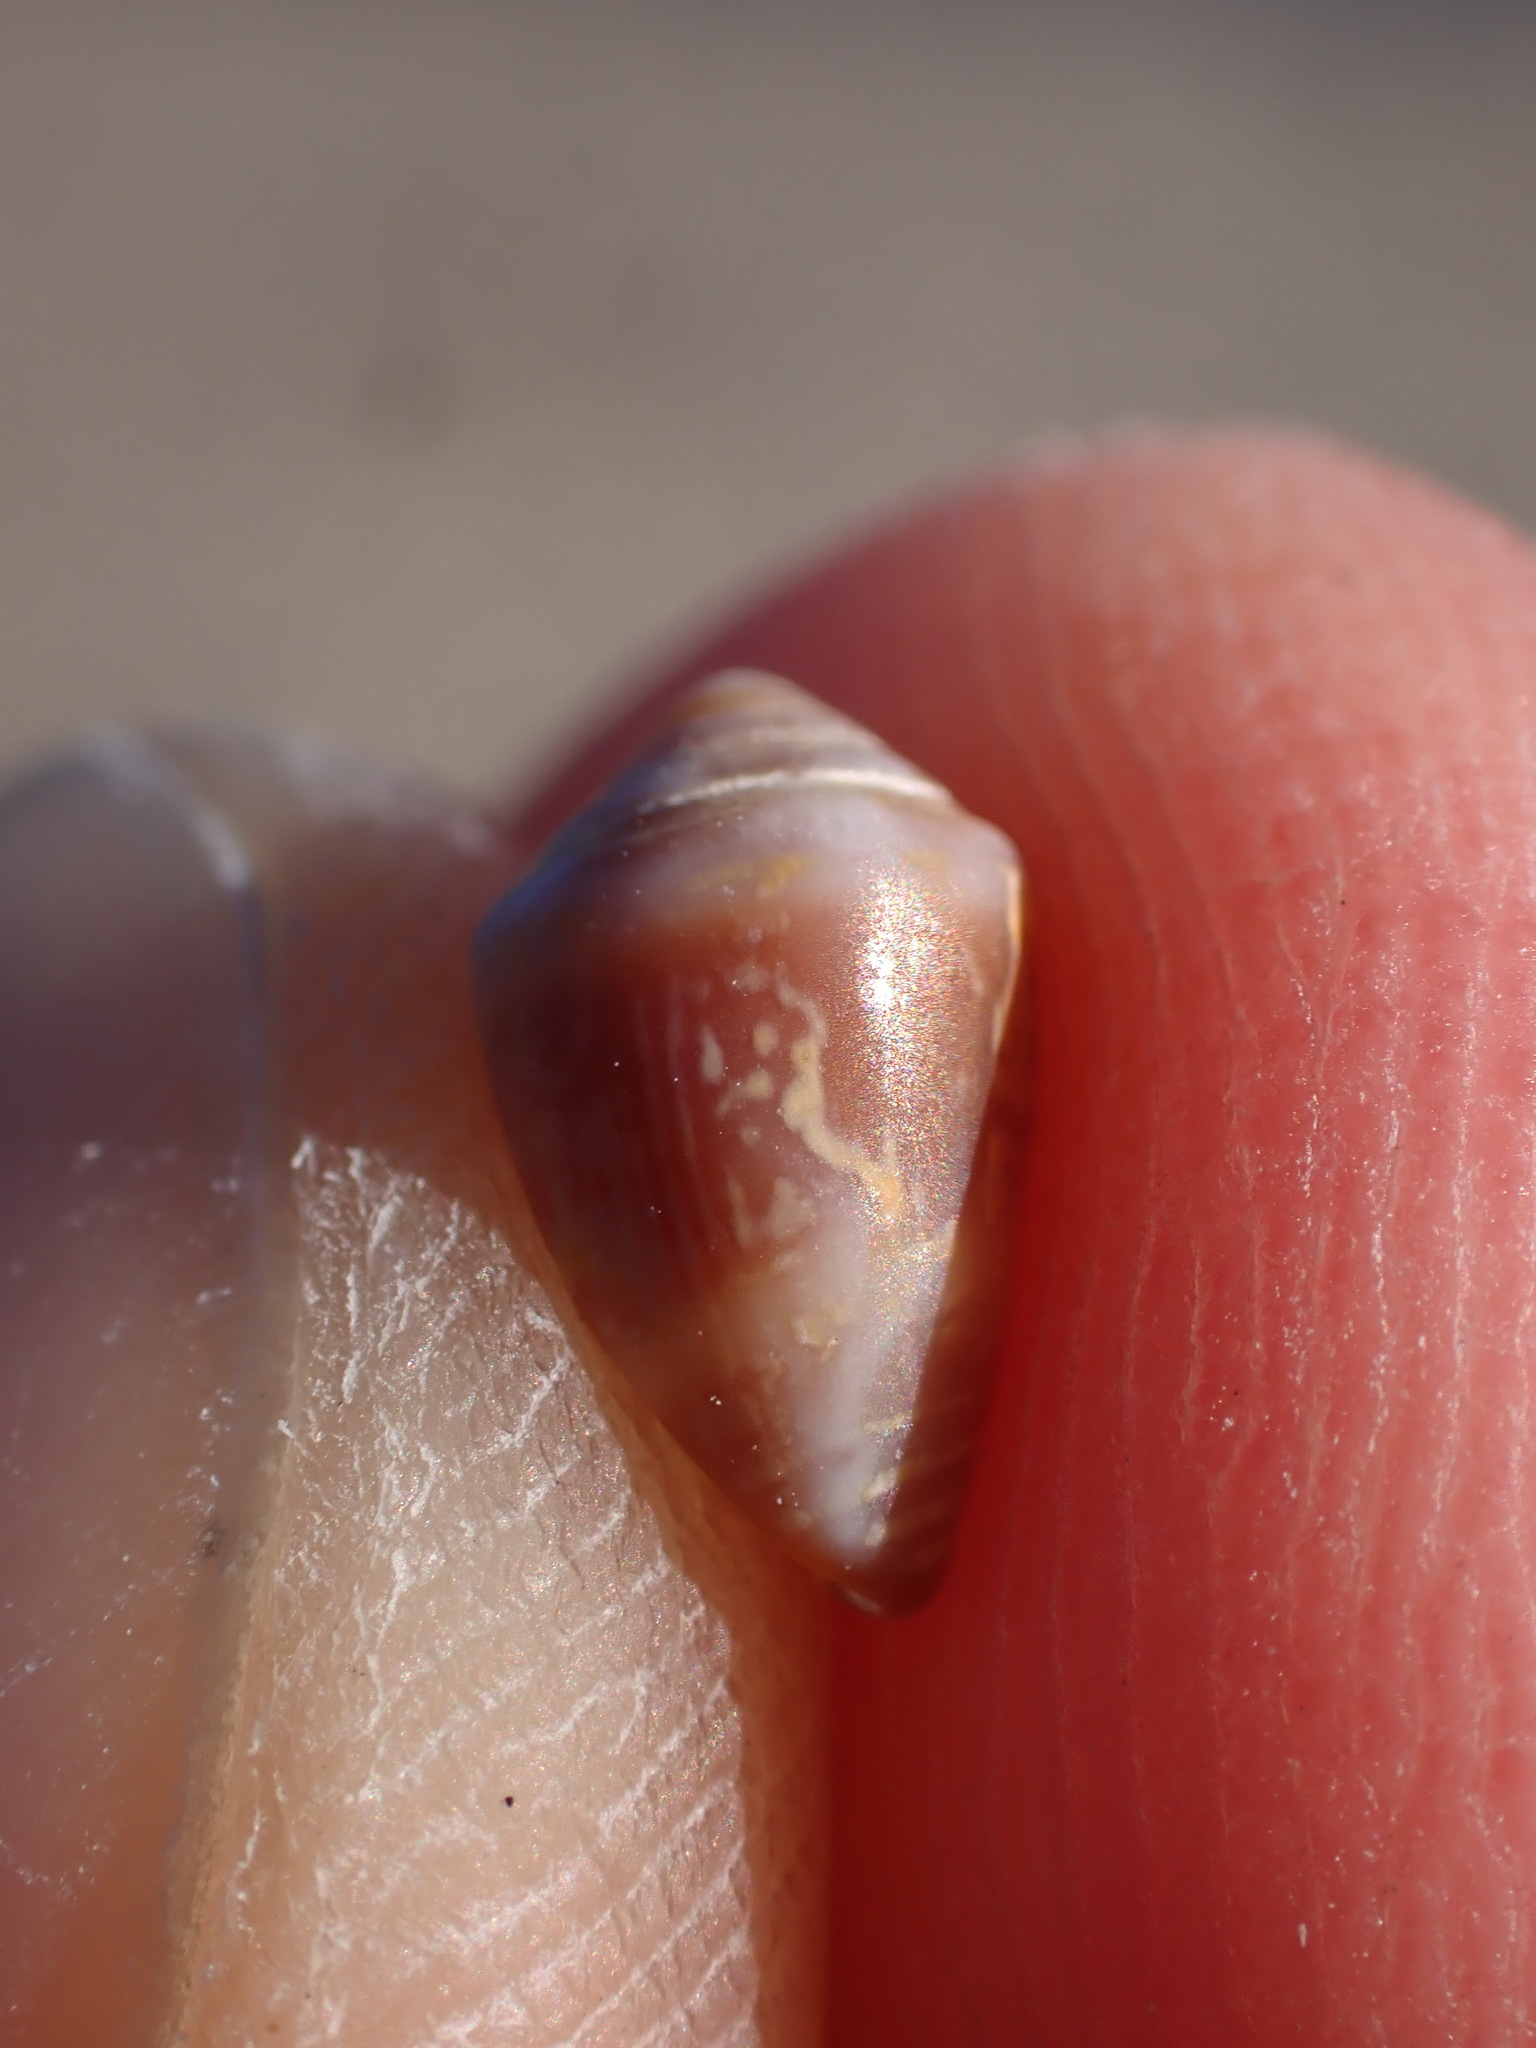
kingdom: Animalia
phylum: Mollusca
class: Gastropoda
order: Neogastropoda
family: Conidae
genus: Conus
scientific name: Conus ventricosus
